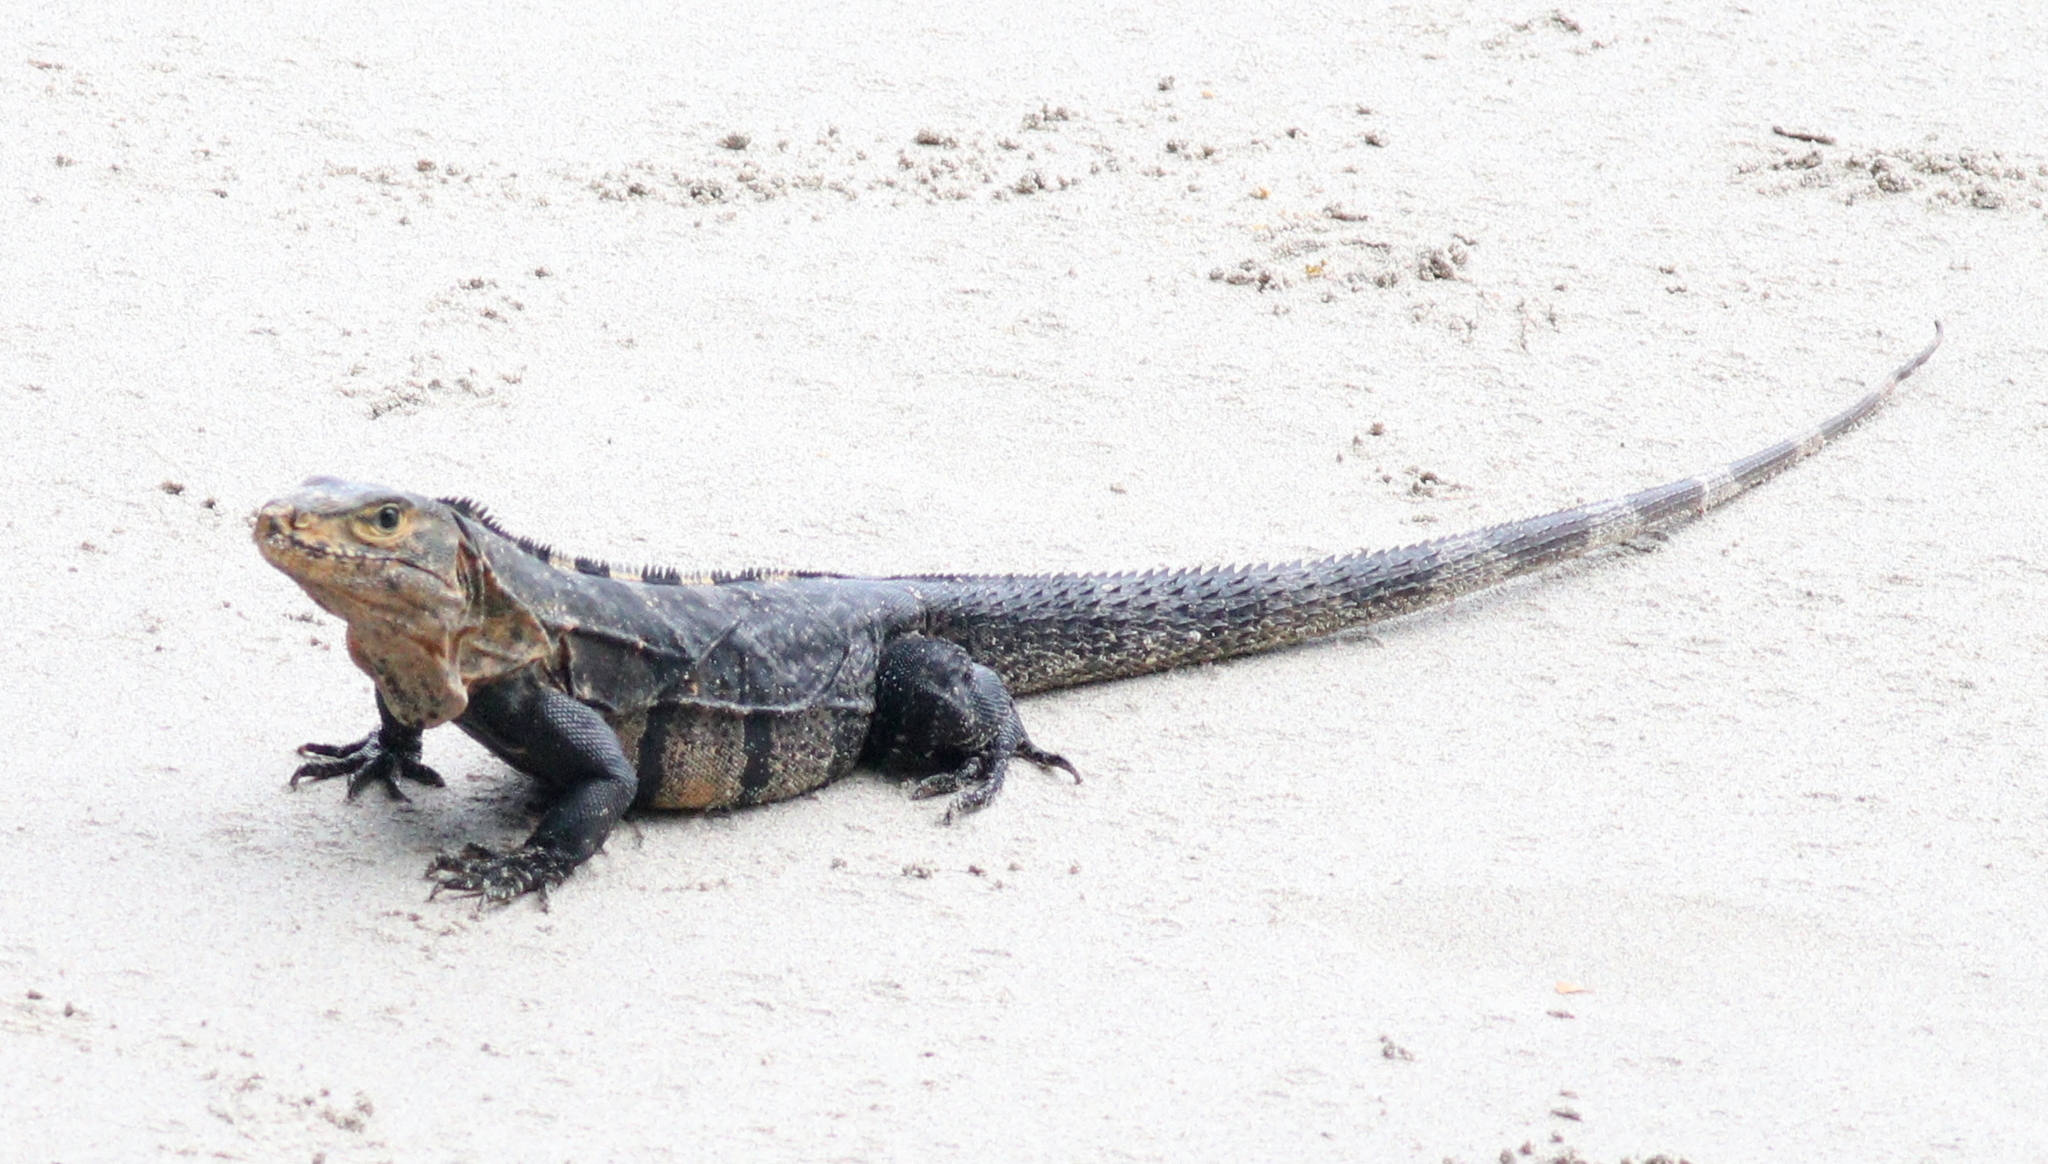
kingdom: Animalia
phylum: Chordata
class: Squamata
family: Iguanidae
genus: Ctenosaura
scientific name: Ctenosaura similis
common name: Black spiny-tailed iguana
